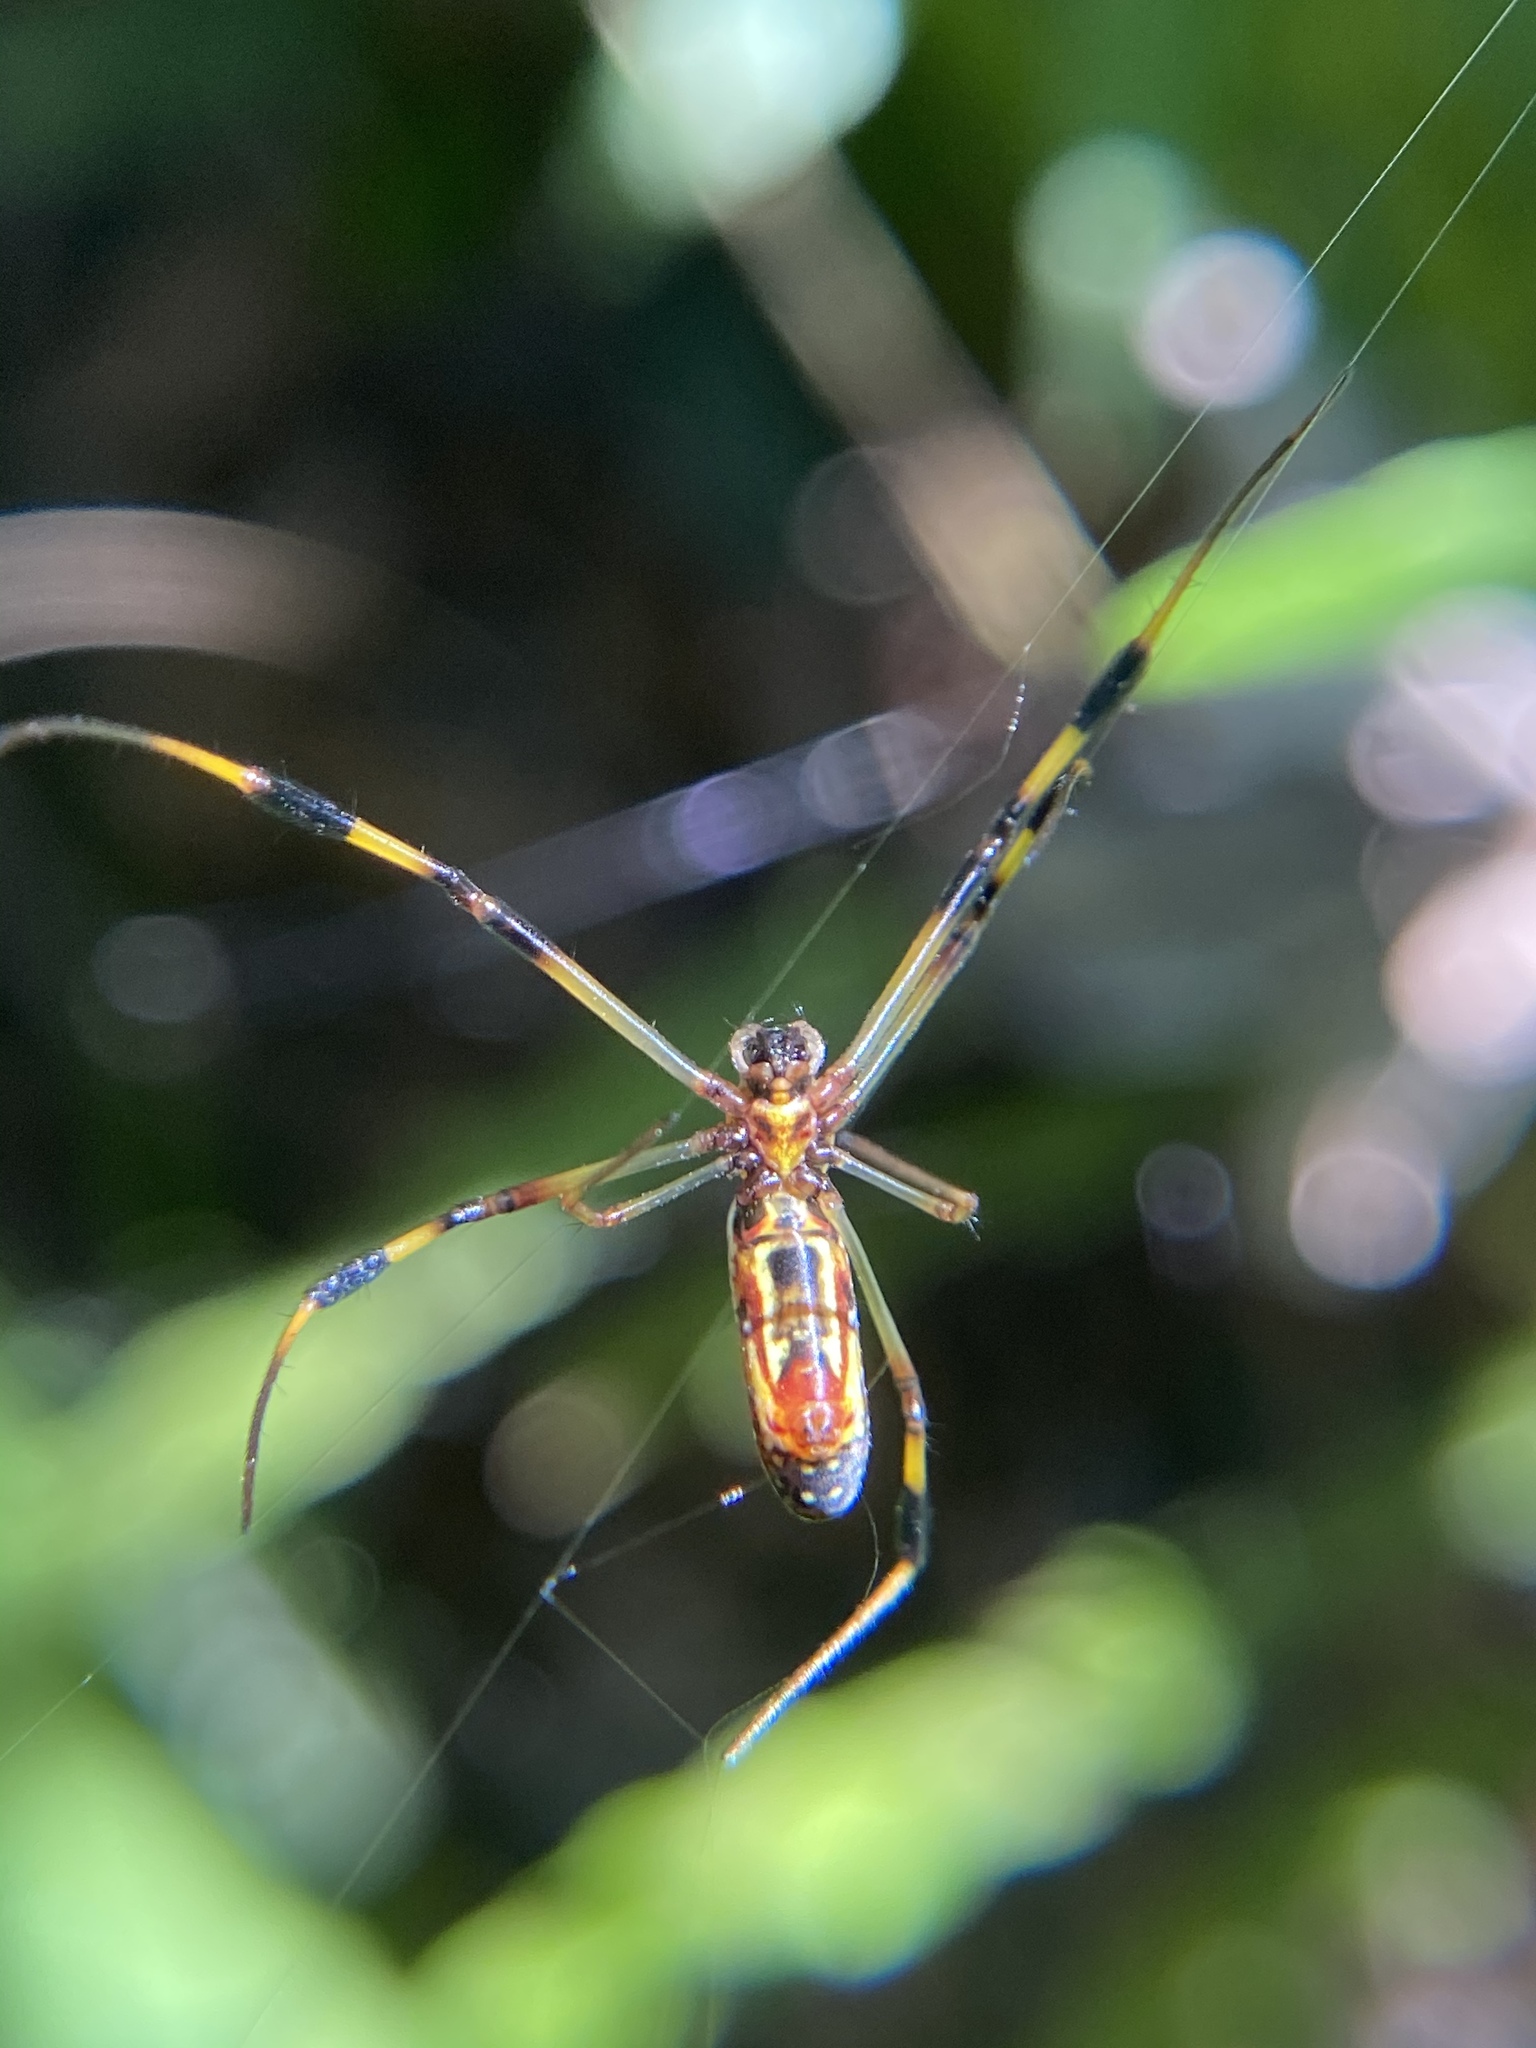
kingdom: Animalia
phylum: Arthropoda
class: Arachnida
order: Araneae
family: Araneidae
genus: Trichonephila
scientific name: Trichonephila clavipes
